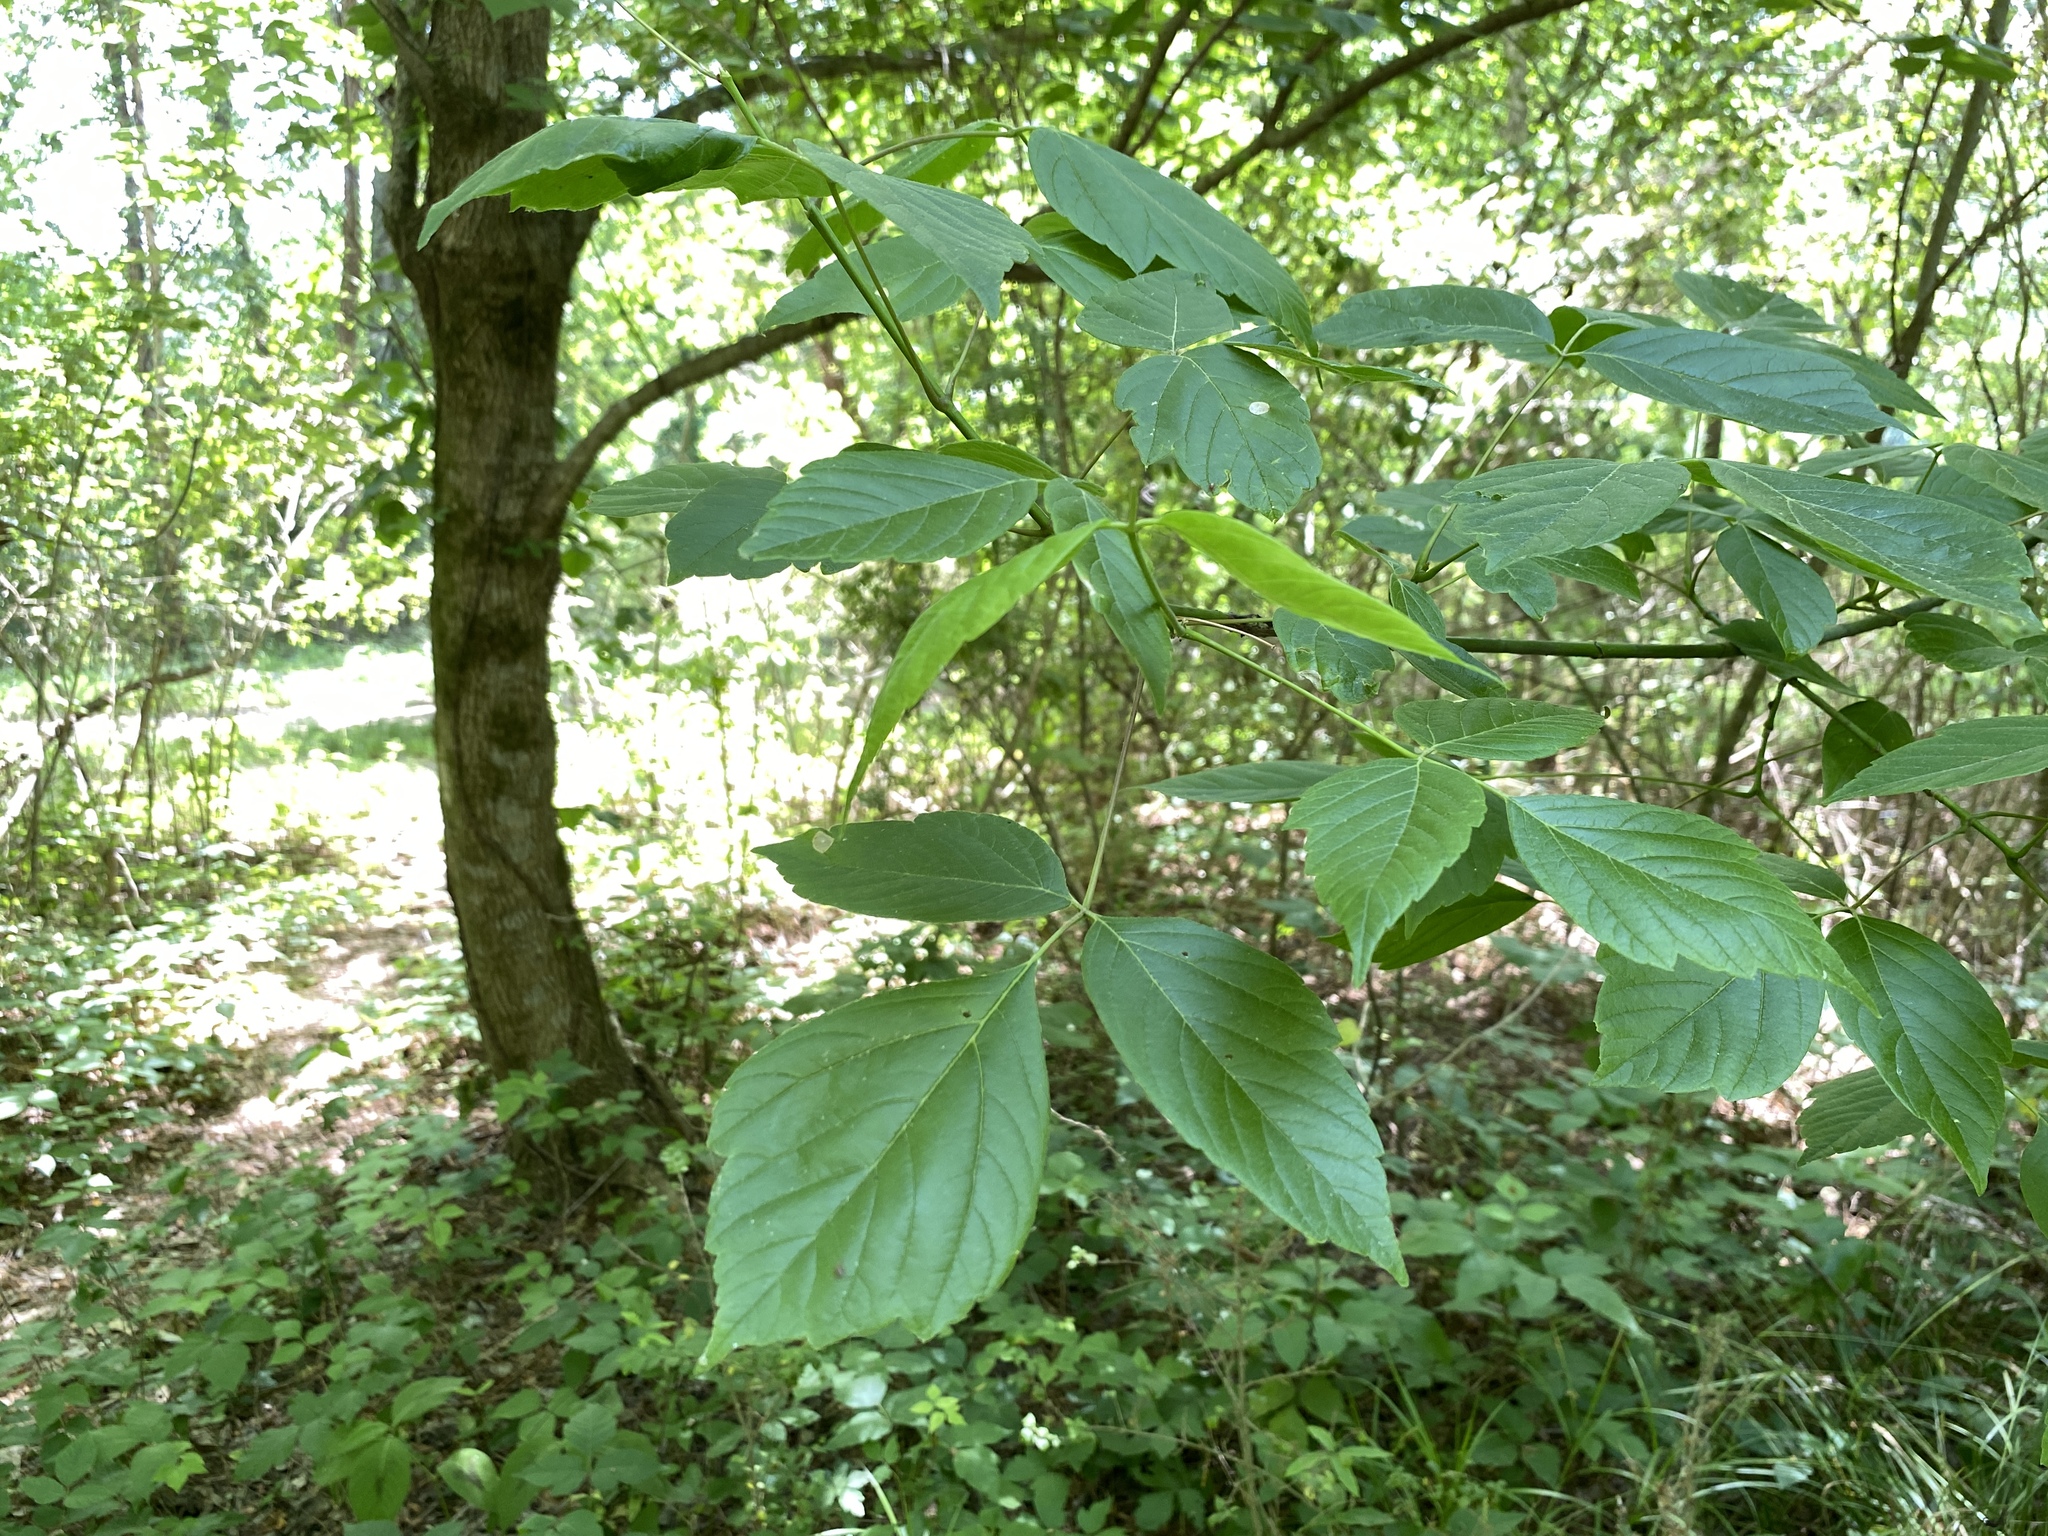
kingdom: Plantae
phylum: Tracheophyta
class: Magnoliopsida
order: Sapindales
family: Sapindaceae
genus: Acer
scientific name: Acer negundo
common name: Ashleaf maple
